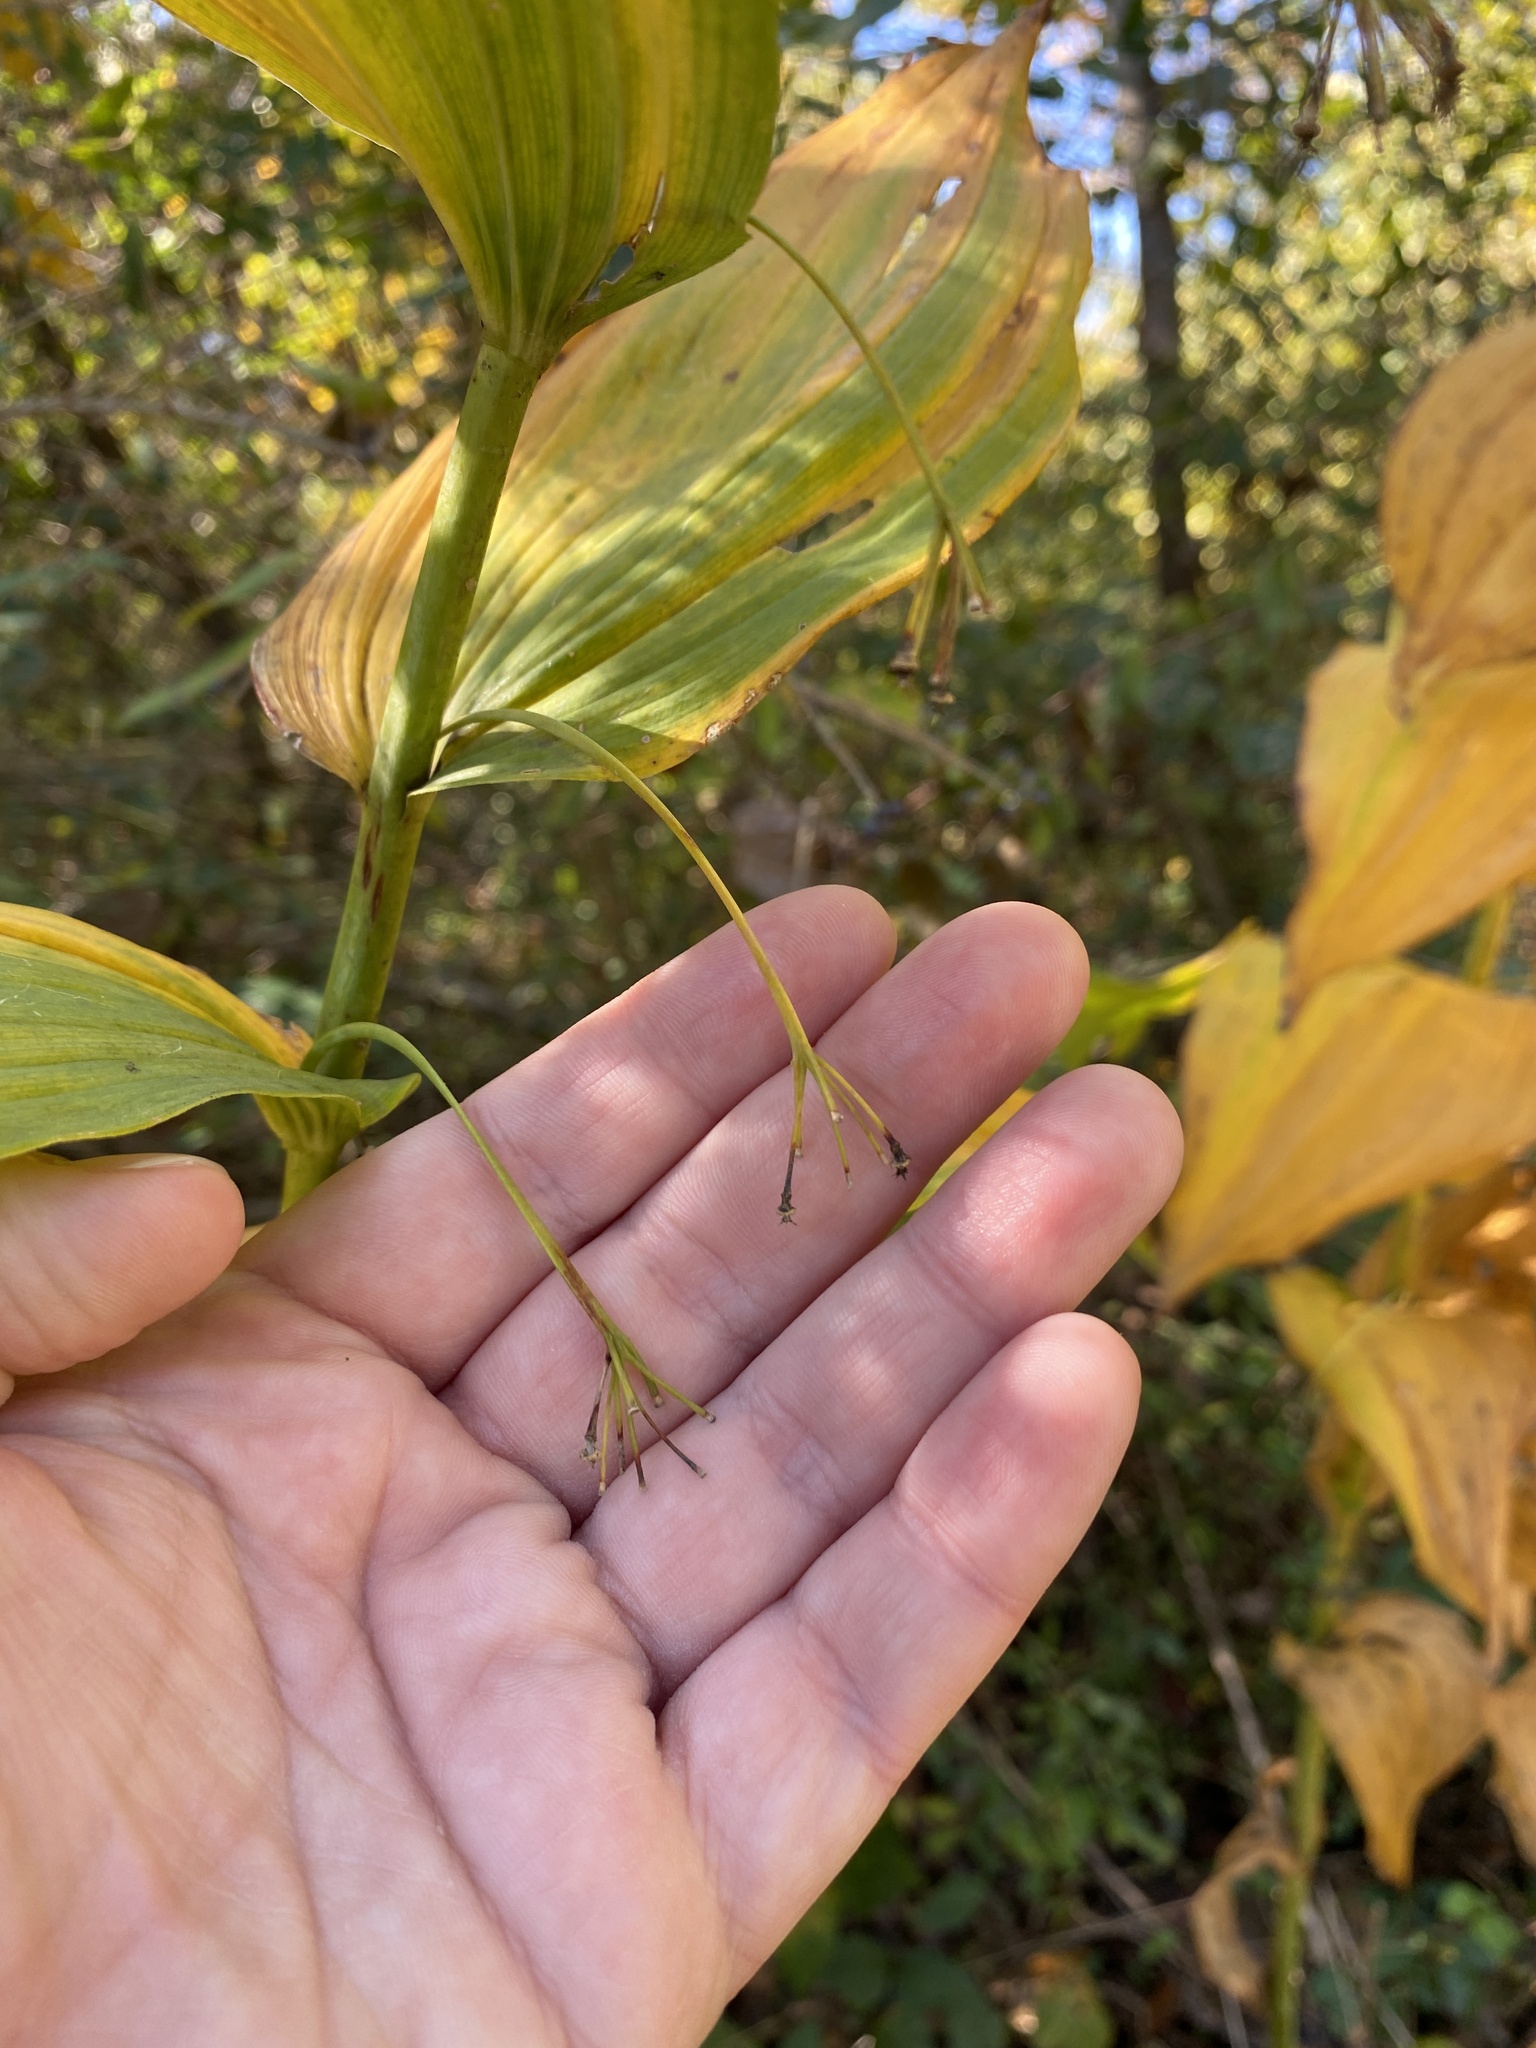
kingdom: Plantae
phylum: Tracheophyta
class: Liliopsida
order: Asparagales
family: Asparagaceae
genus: Polygonatum
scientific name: Polygonatum biflorum
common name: American solomon's-seal
